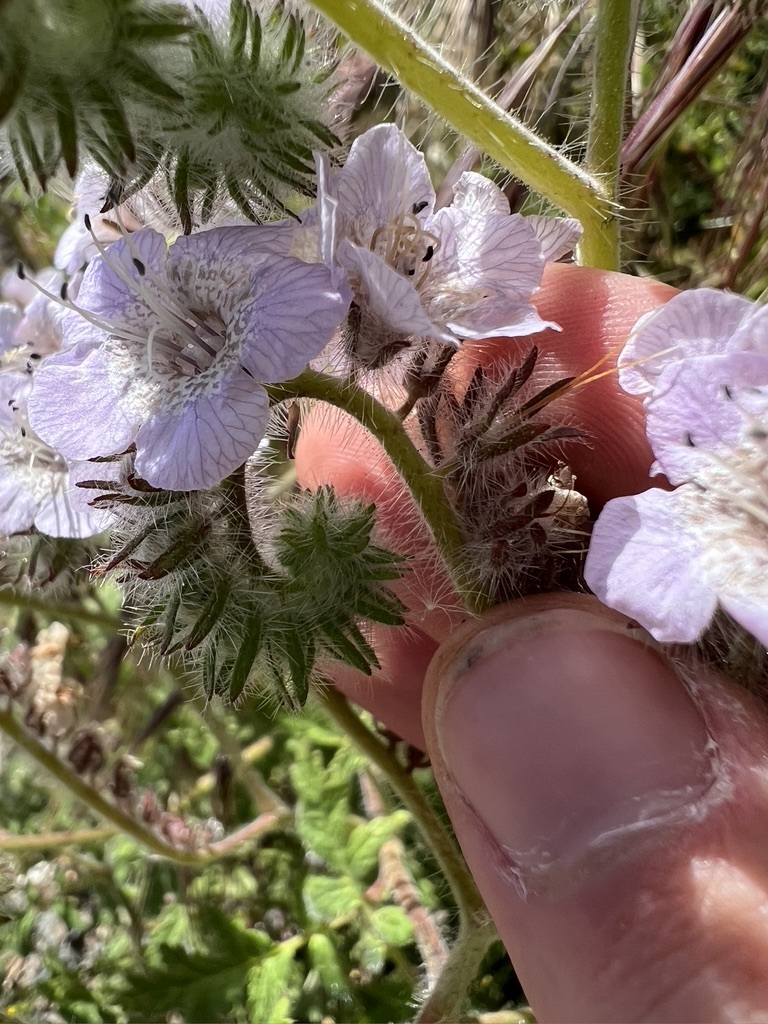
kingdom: Plantae
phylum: Tracheophyta
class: Magnoliopsida
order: Boraginales
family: Hydrophyllaceae
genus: Phacelia
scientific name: Phacelia cicutaria
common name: Caterpillar phacelia
